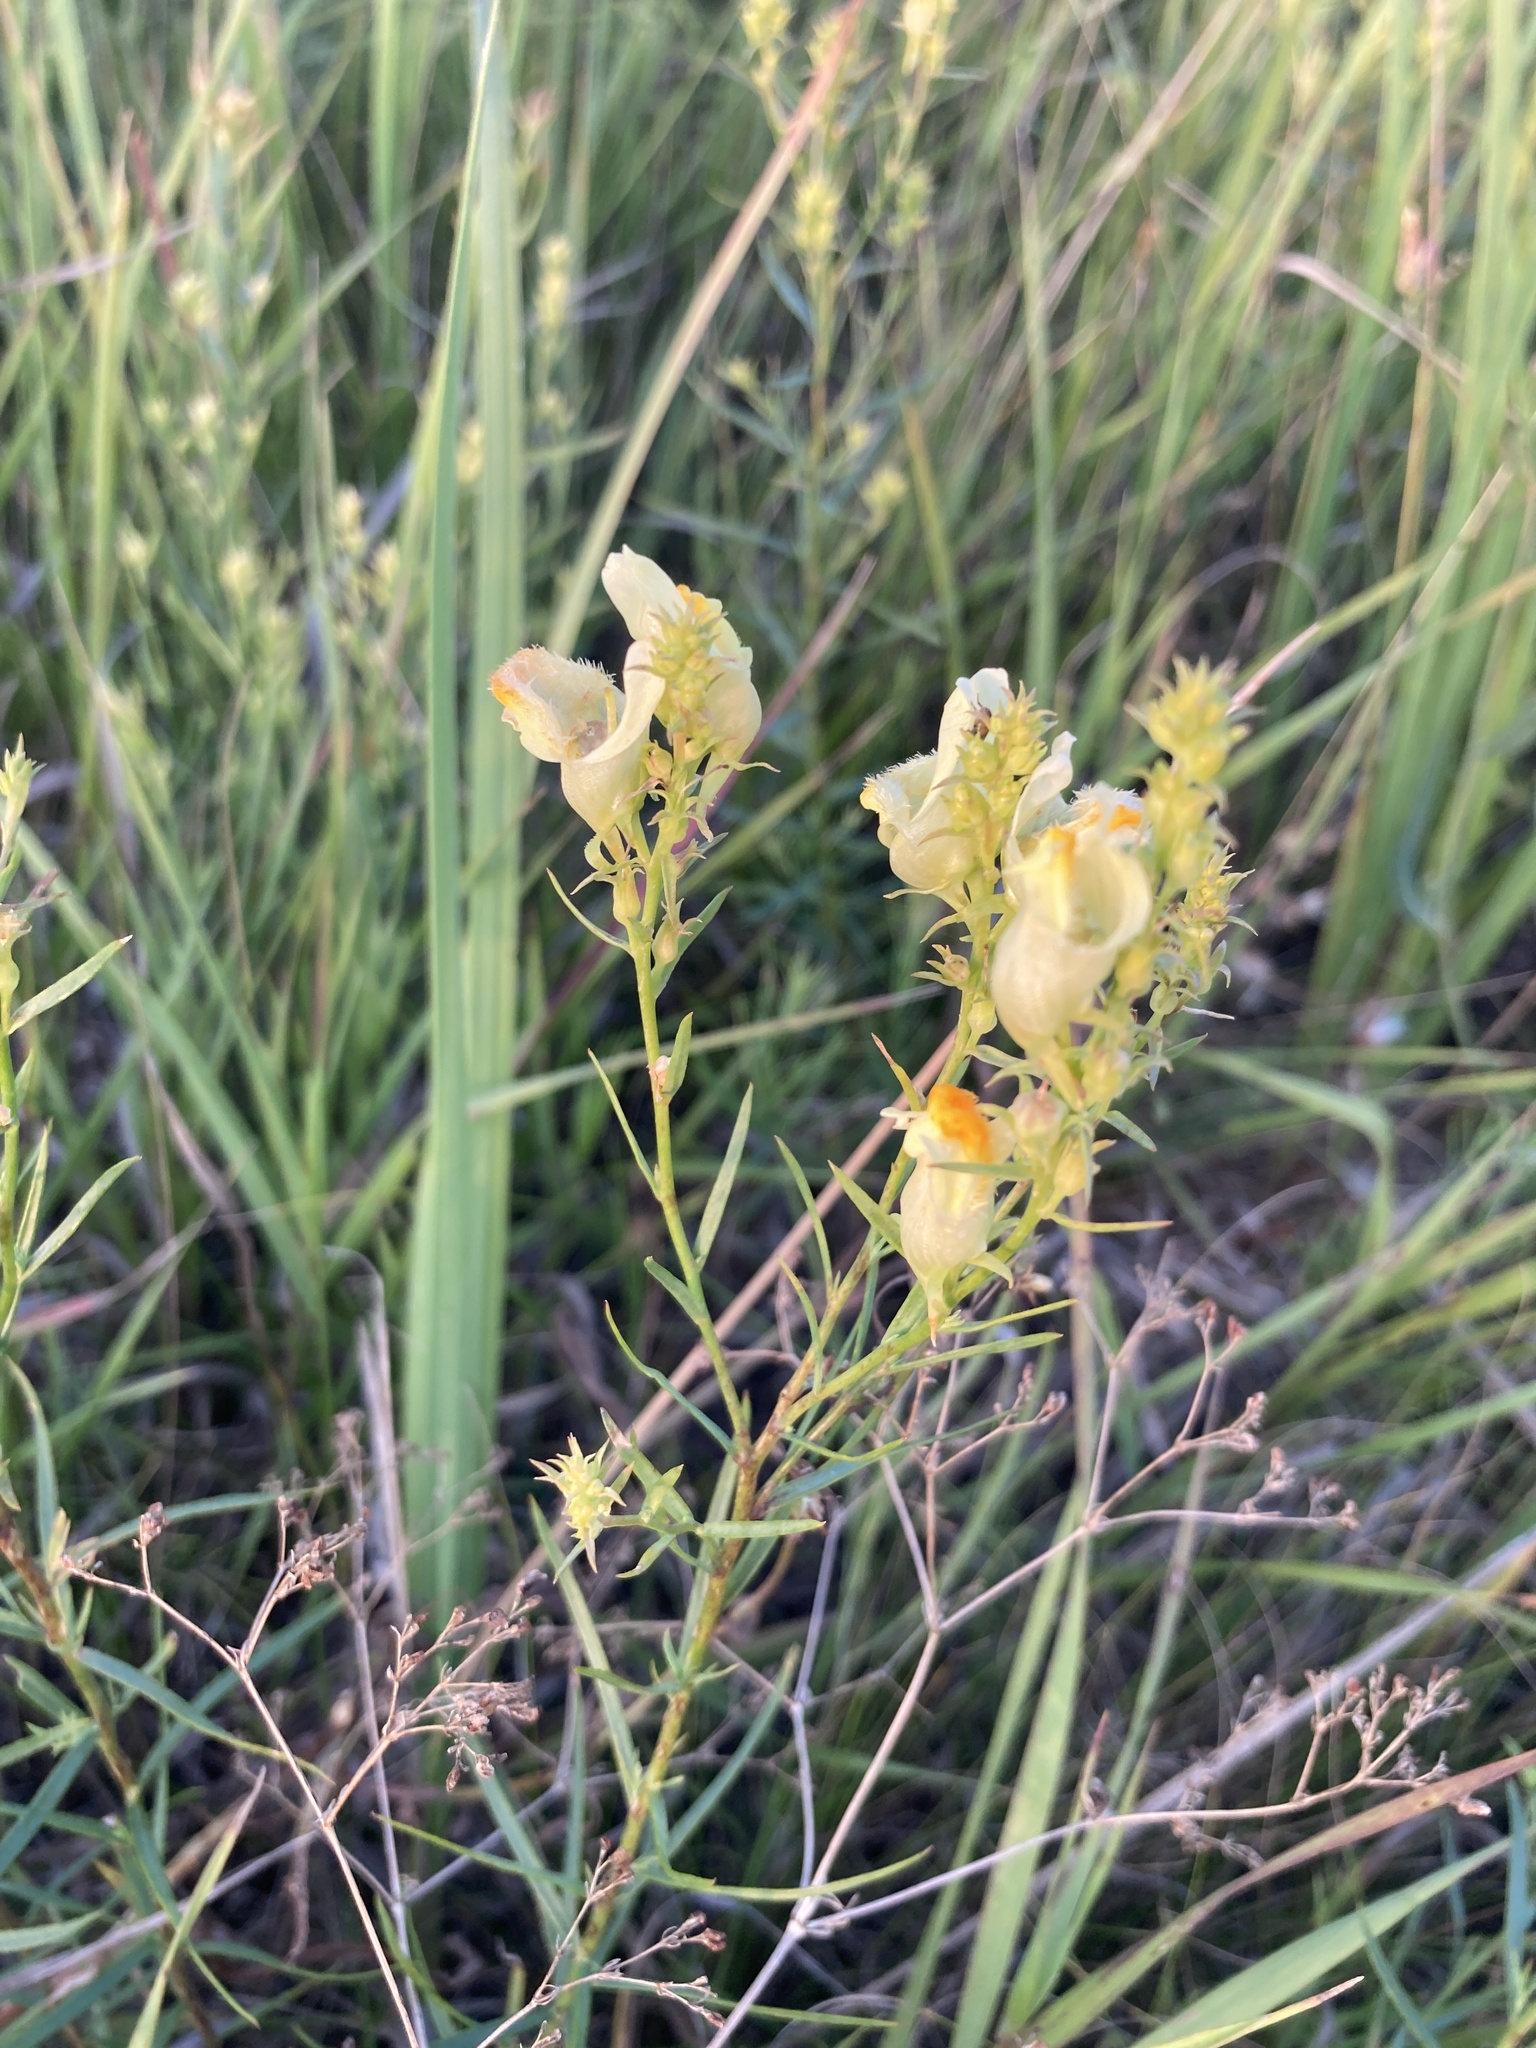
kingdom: Plantae
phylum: Tracheophyta
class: Magnoliopsida
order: Lamiales
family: Plantaginaceae
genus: Linaria
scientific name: Linaria vulgaris
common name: Butter and eggs
